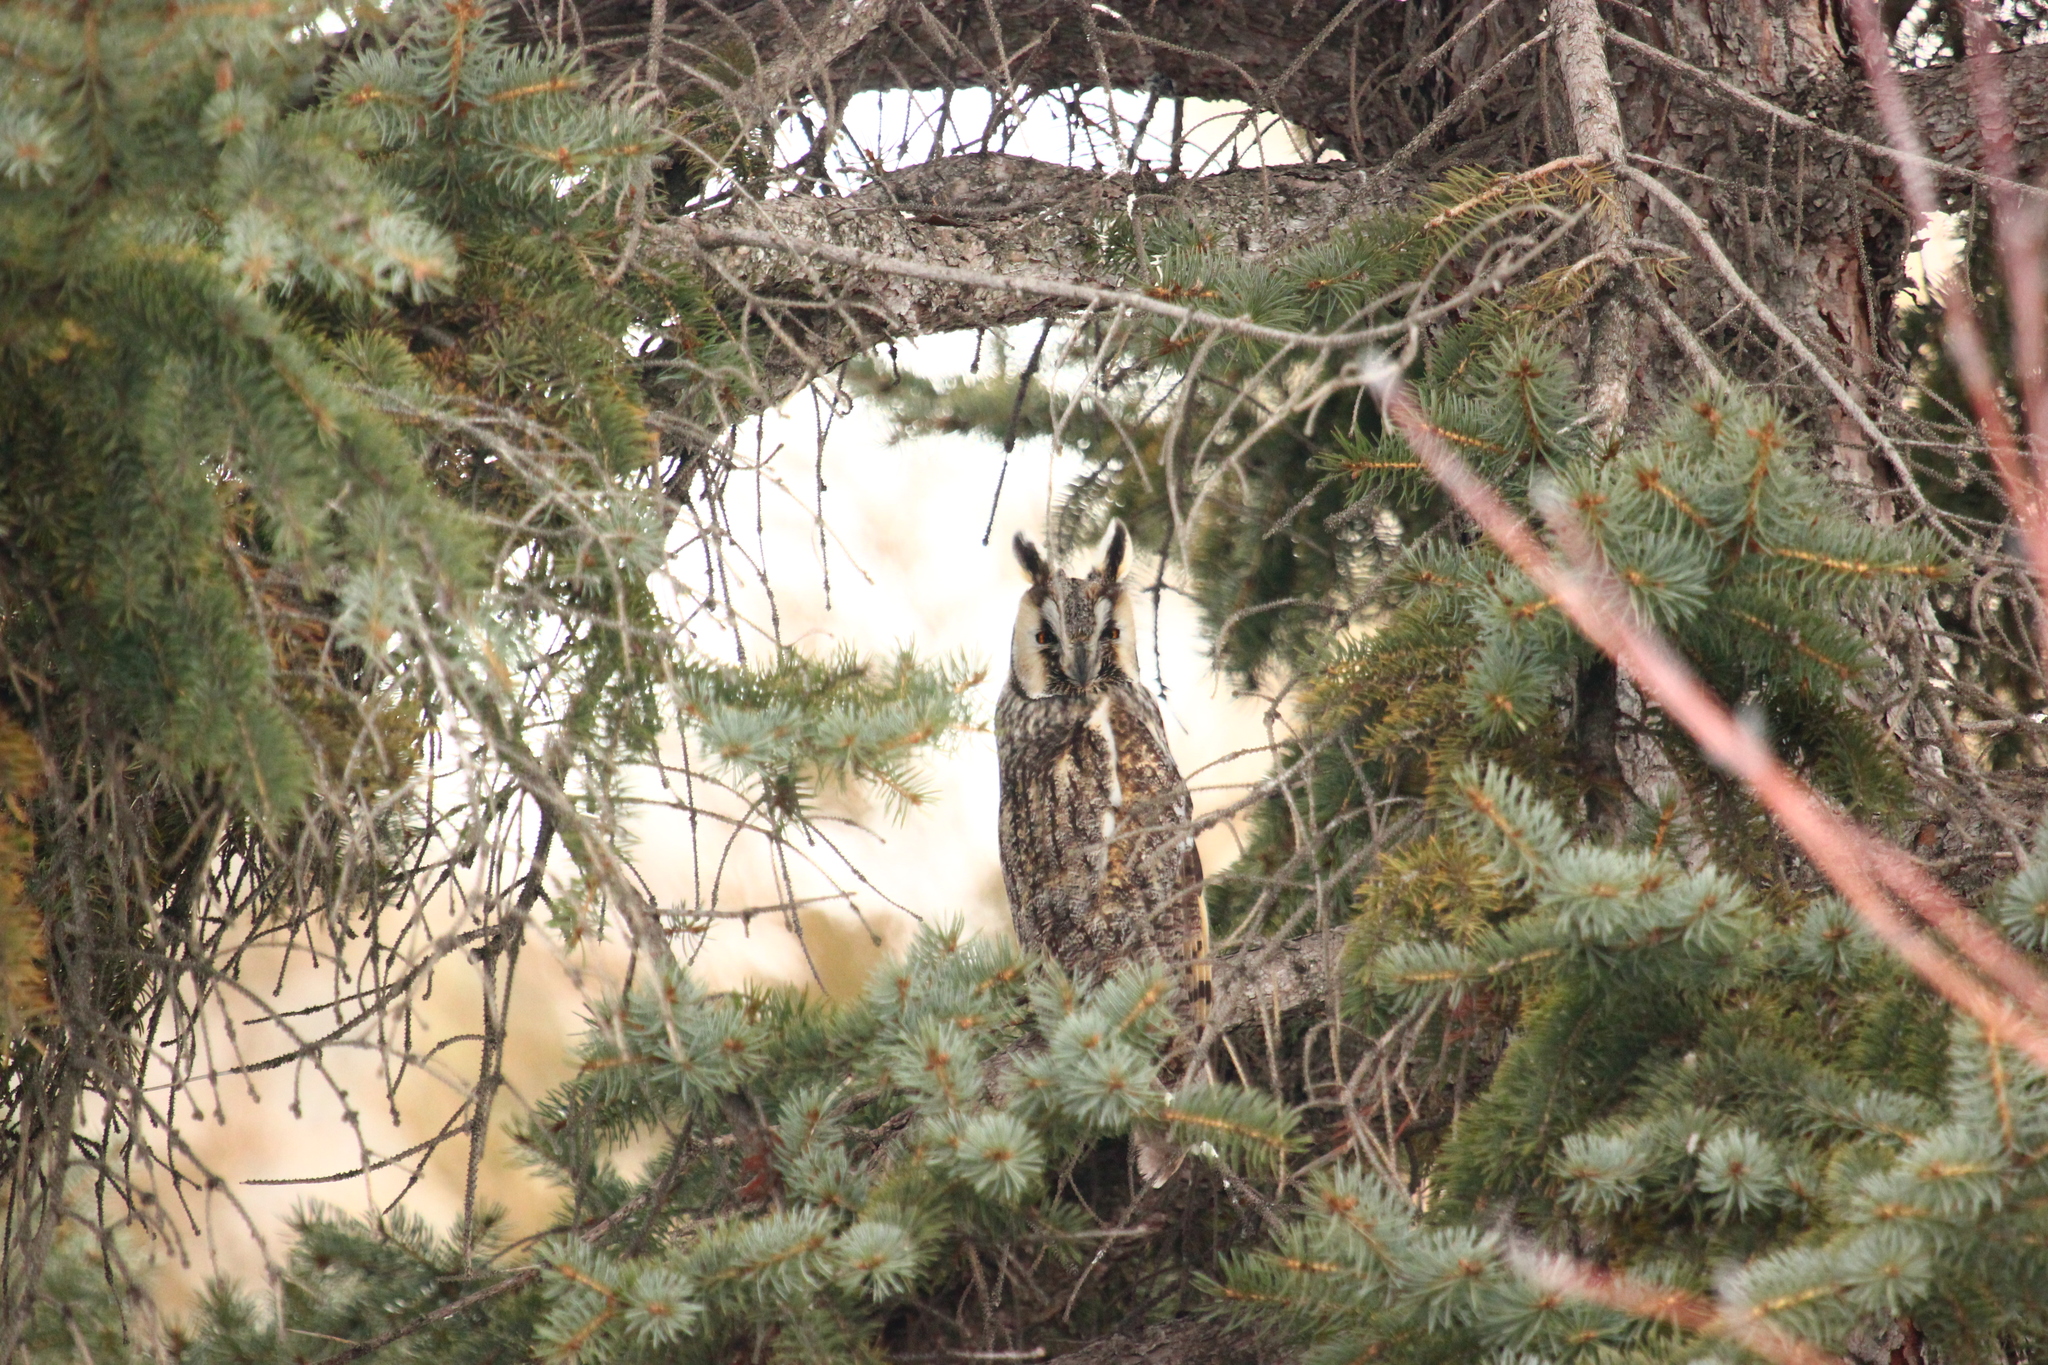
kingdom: Animalia
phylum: Chordata
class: Aves
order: Strigiformes
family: Strigidae
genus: Asio
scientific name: Asio otus
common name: Long-eared owl
